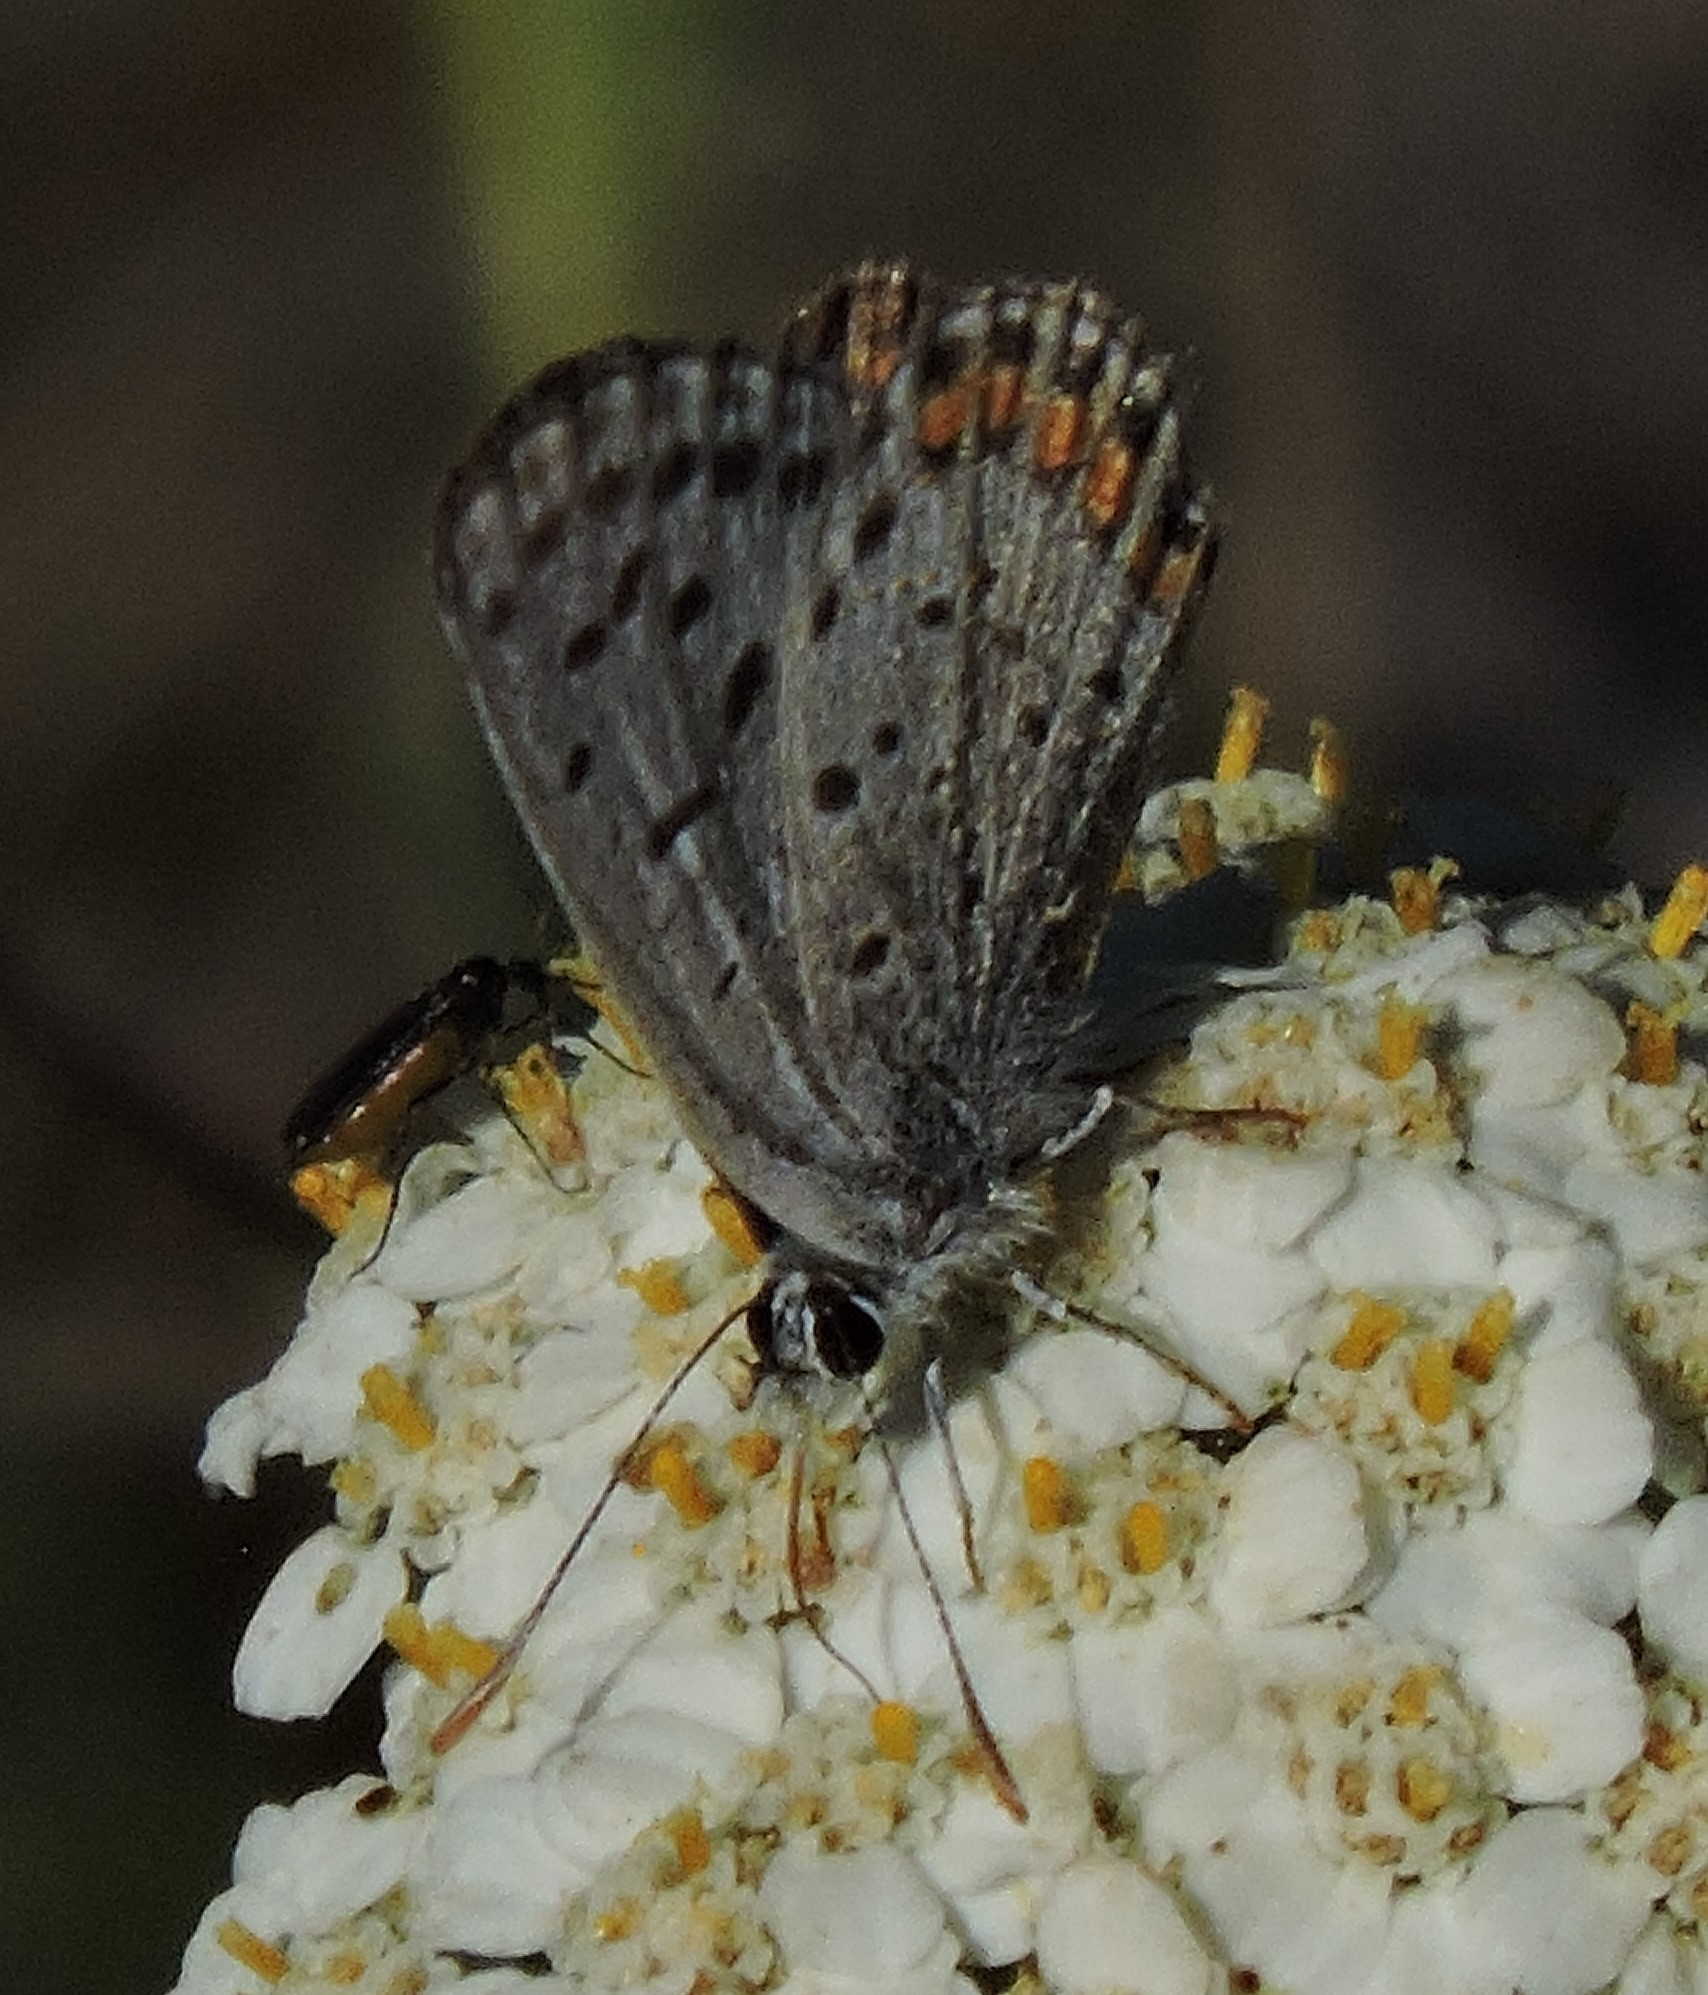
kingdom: Animalia
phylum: Arthropoda
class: Insecta
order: Lepidoptera
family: Lycaenidae
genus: Icaricia
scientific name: Icaricia acmon
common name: Acmon blue
